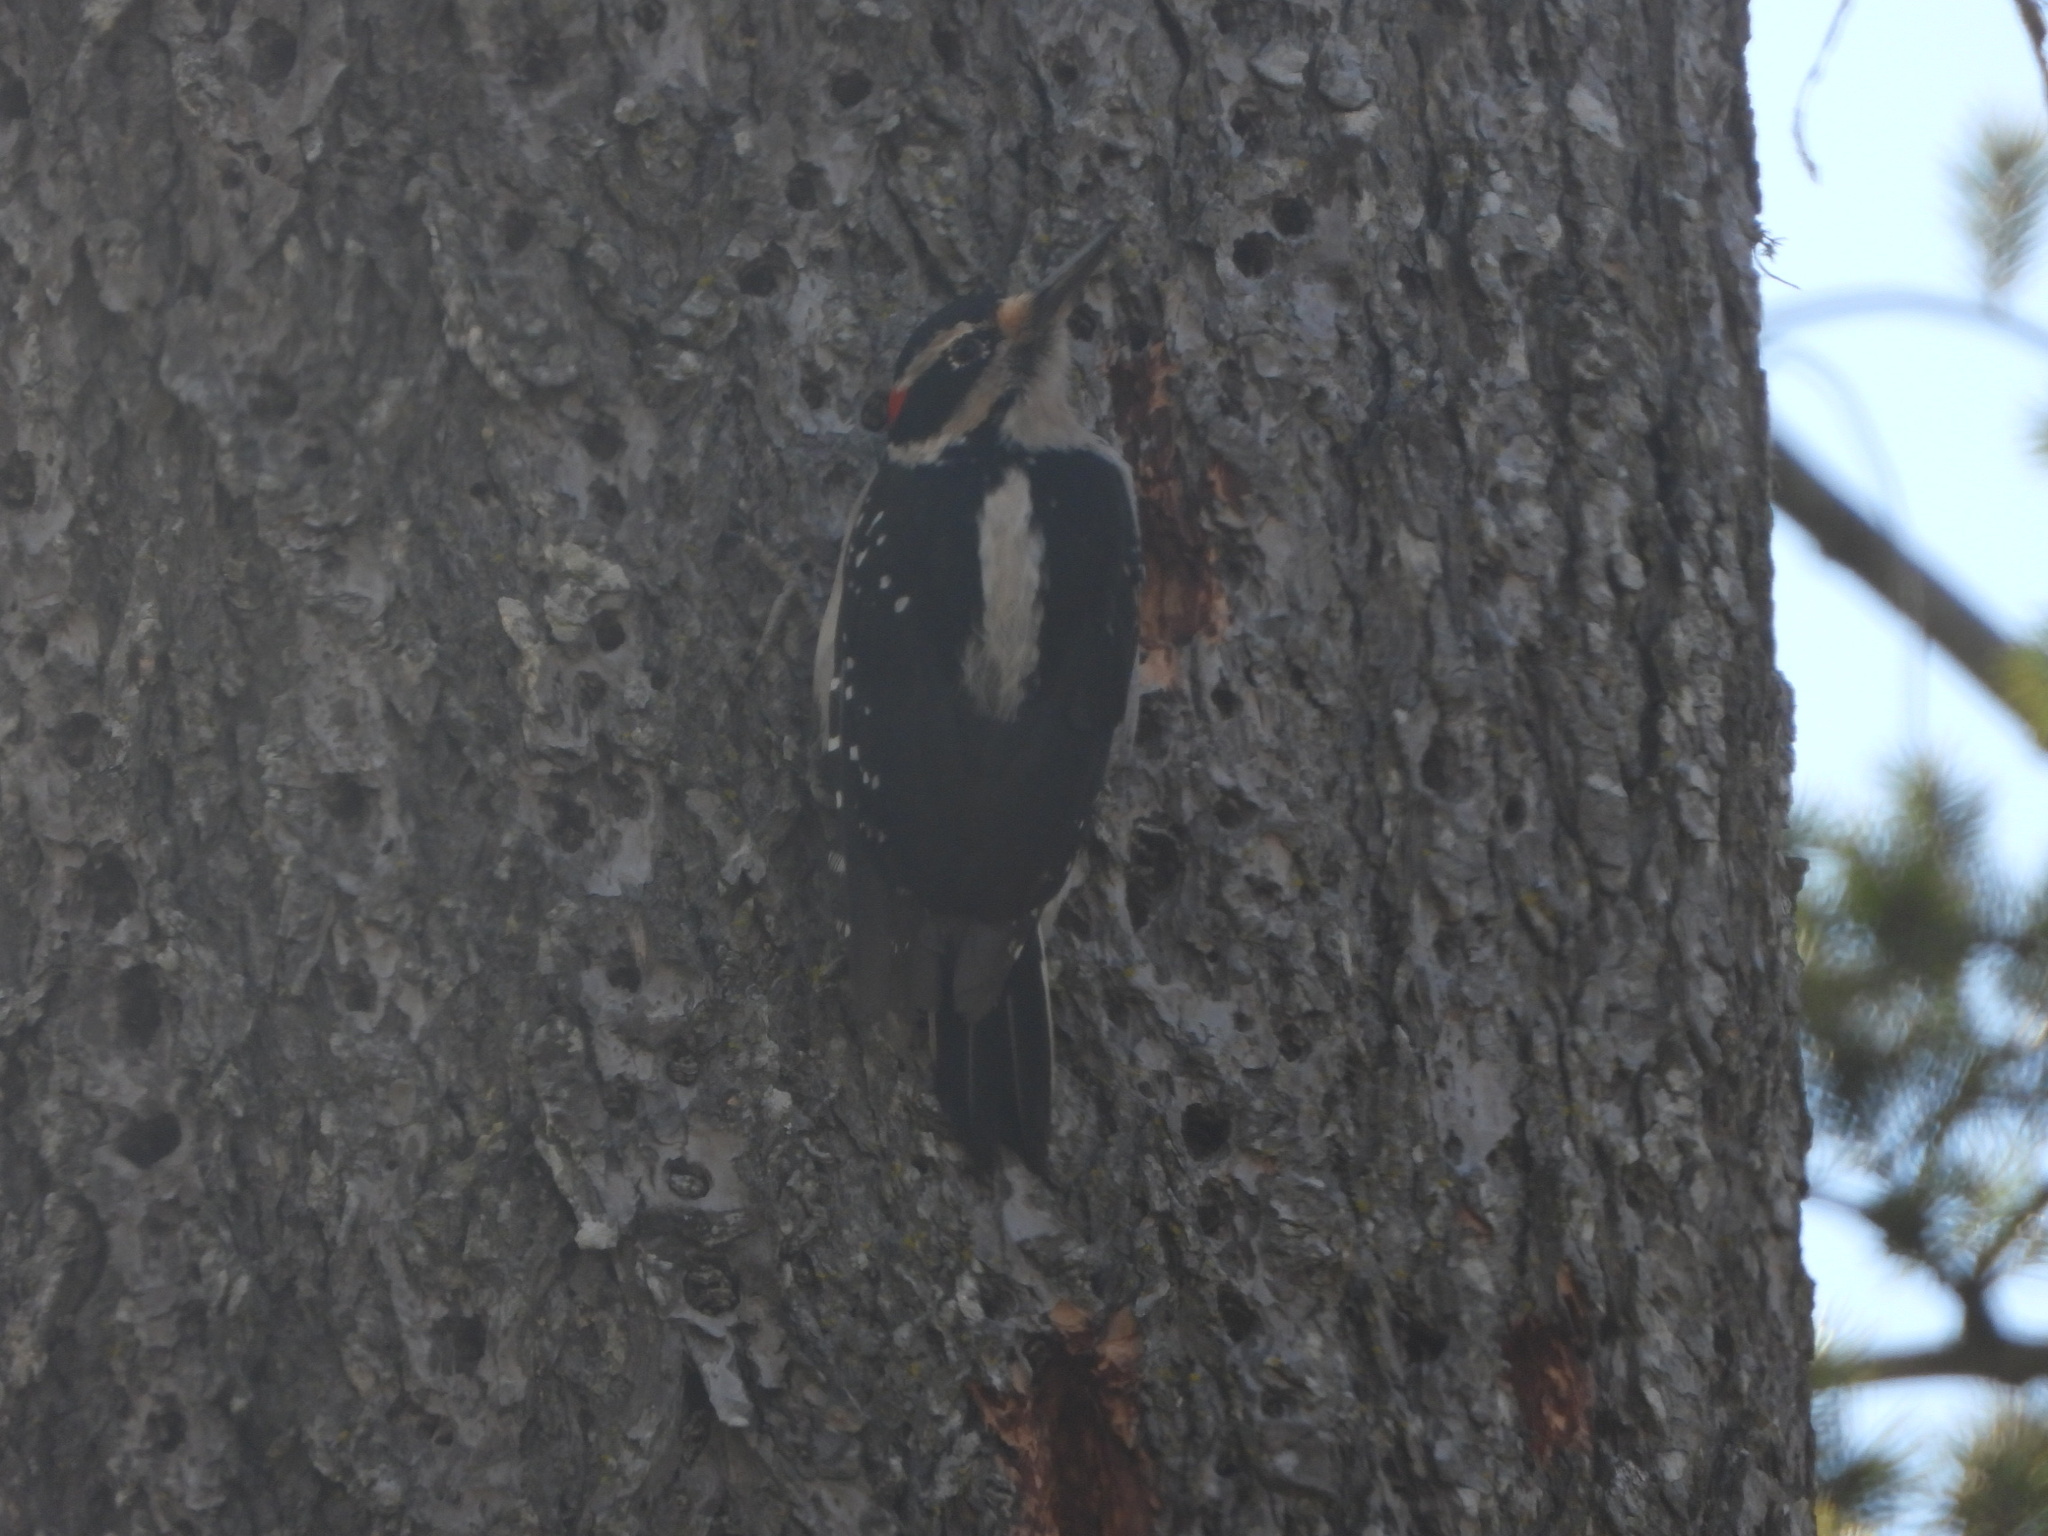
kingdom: Animalia
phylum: Chordata
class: Aves
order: Piciformes
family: Picidae
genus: Leuconotopicus
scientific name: Leuconotopicus villosus
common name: Hairy woodpecker
